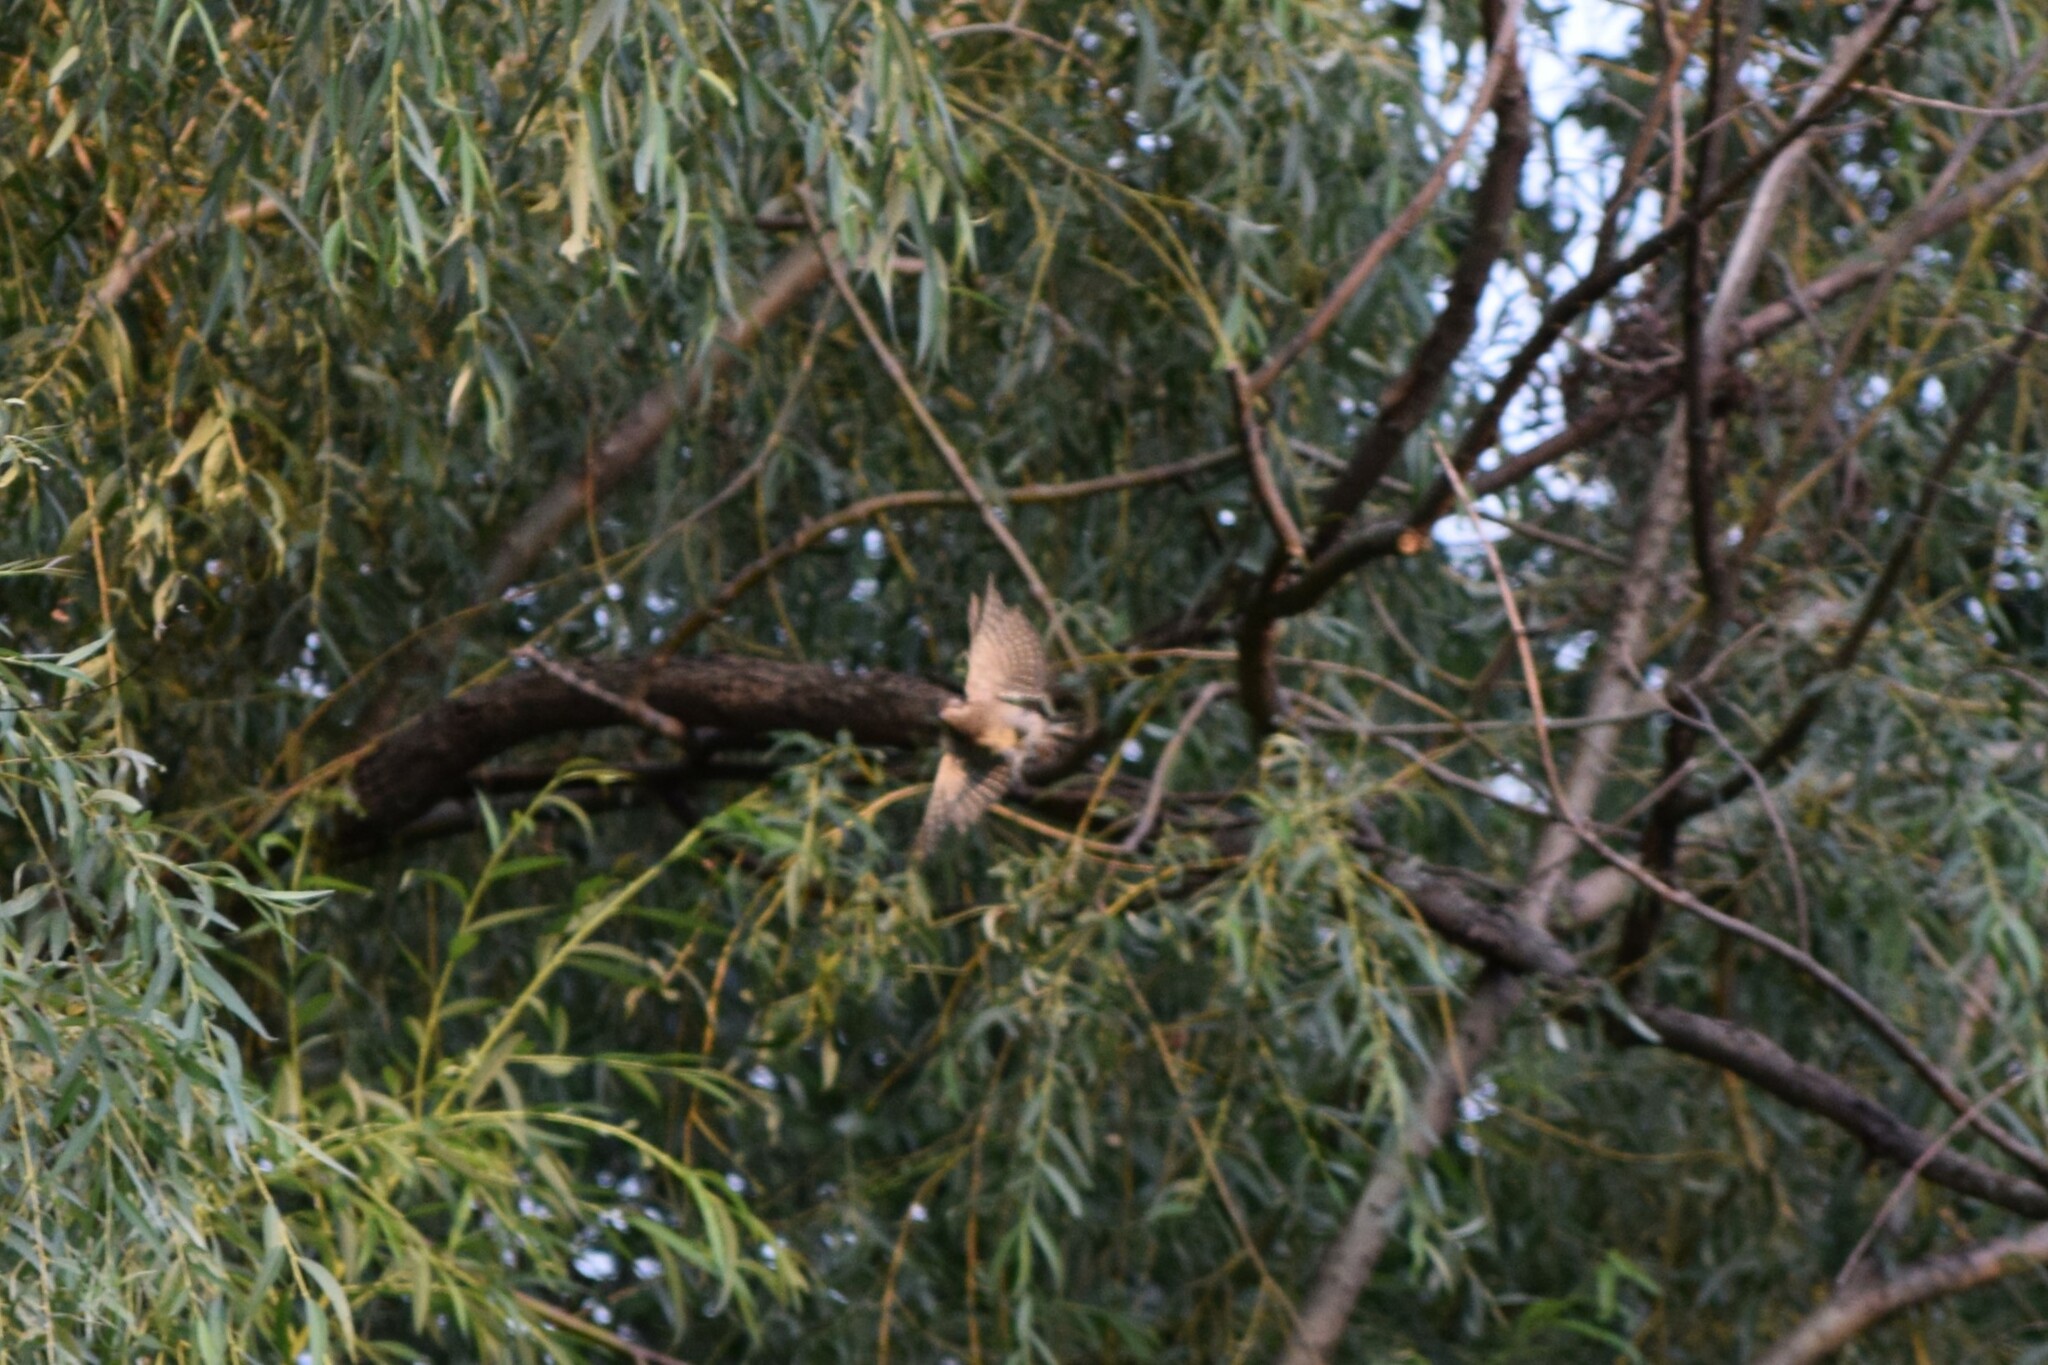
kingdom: Animalia
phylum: Chordata
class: Aves
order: Piciformes
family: Picidae
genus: Sphyrapicus
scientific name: Sphyrapicus varius
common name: Yellow-bellied sapsucker
